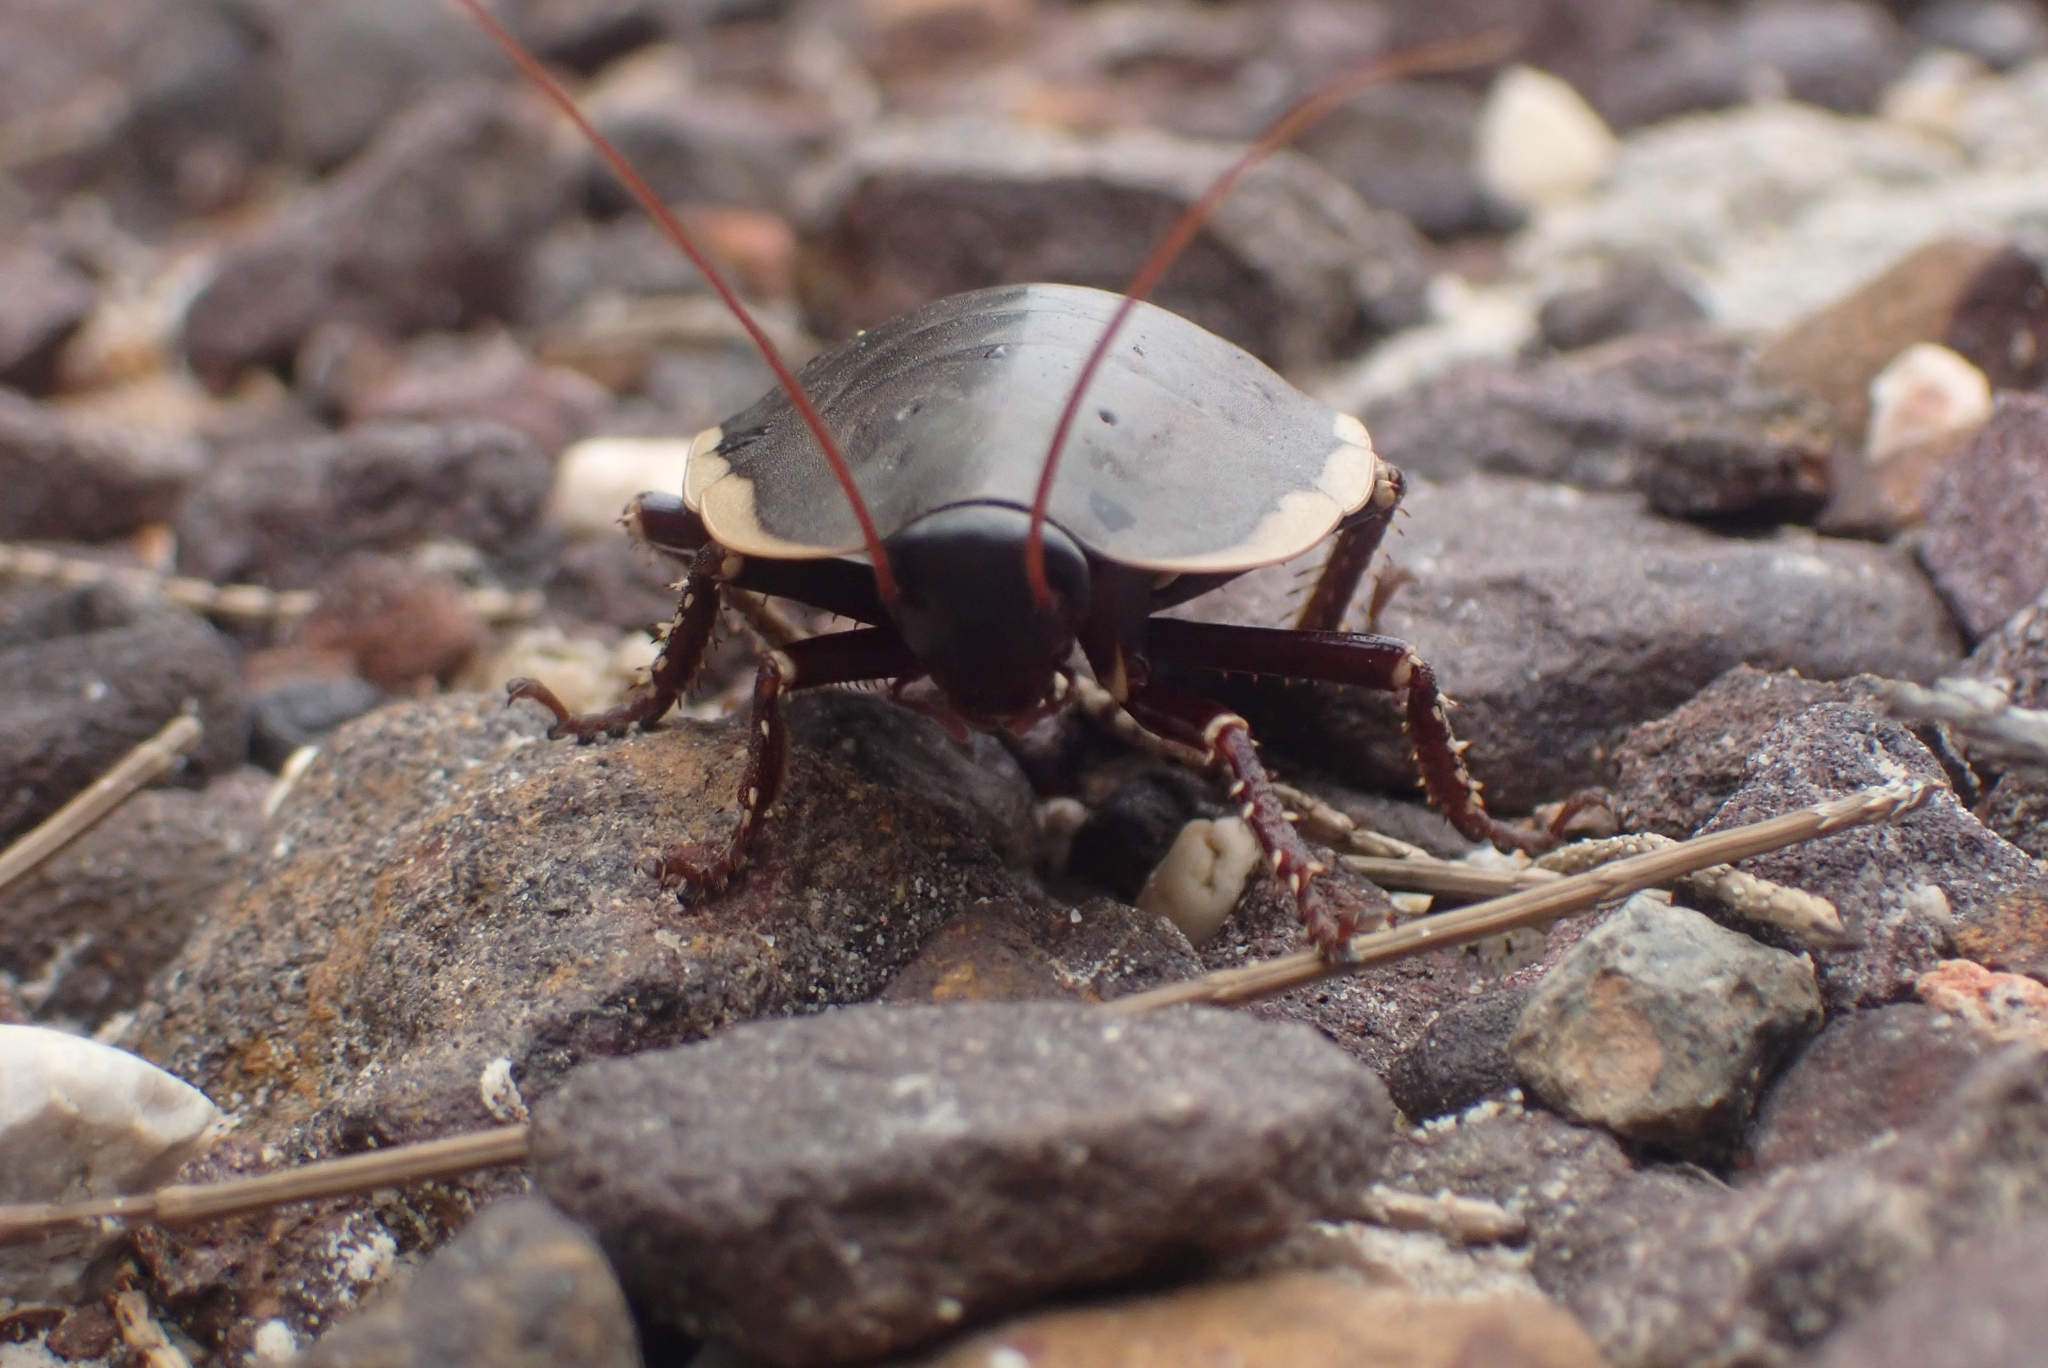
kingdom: Animalia
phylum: Arthropoda
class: Insecta
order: Blattodea
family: Blattidae
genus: Polyzosteria
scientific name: Polyzosteria limbata
